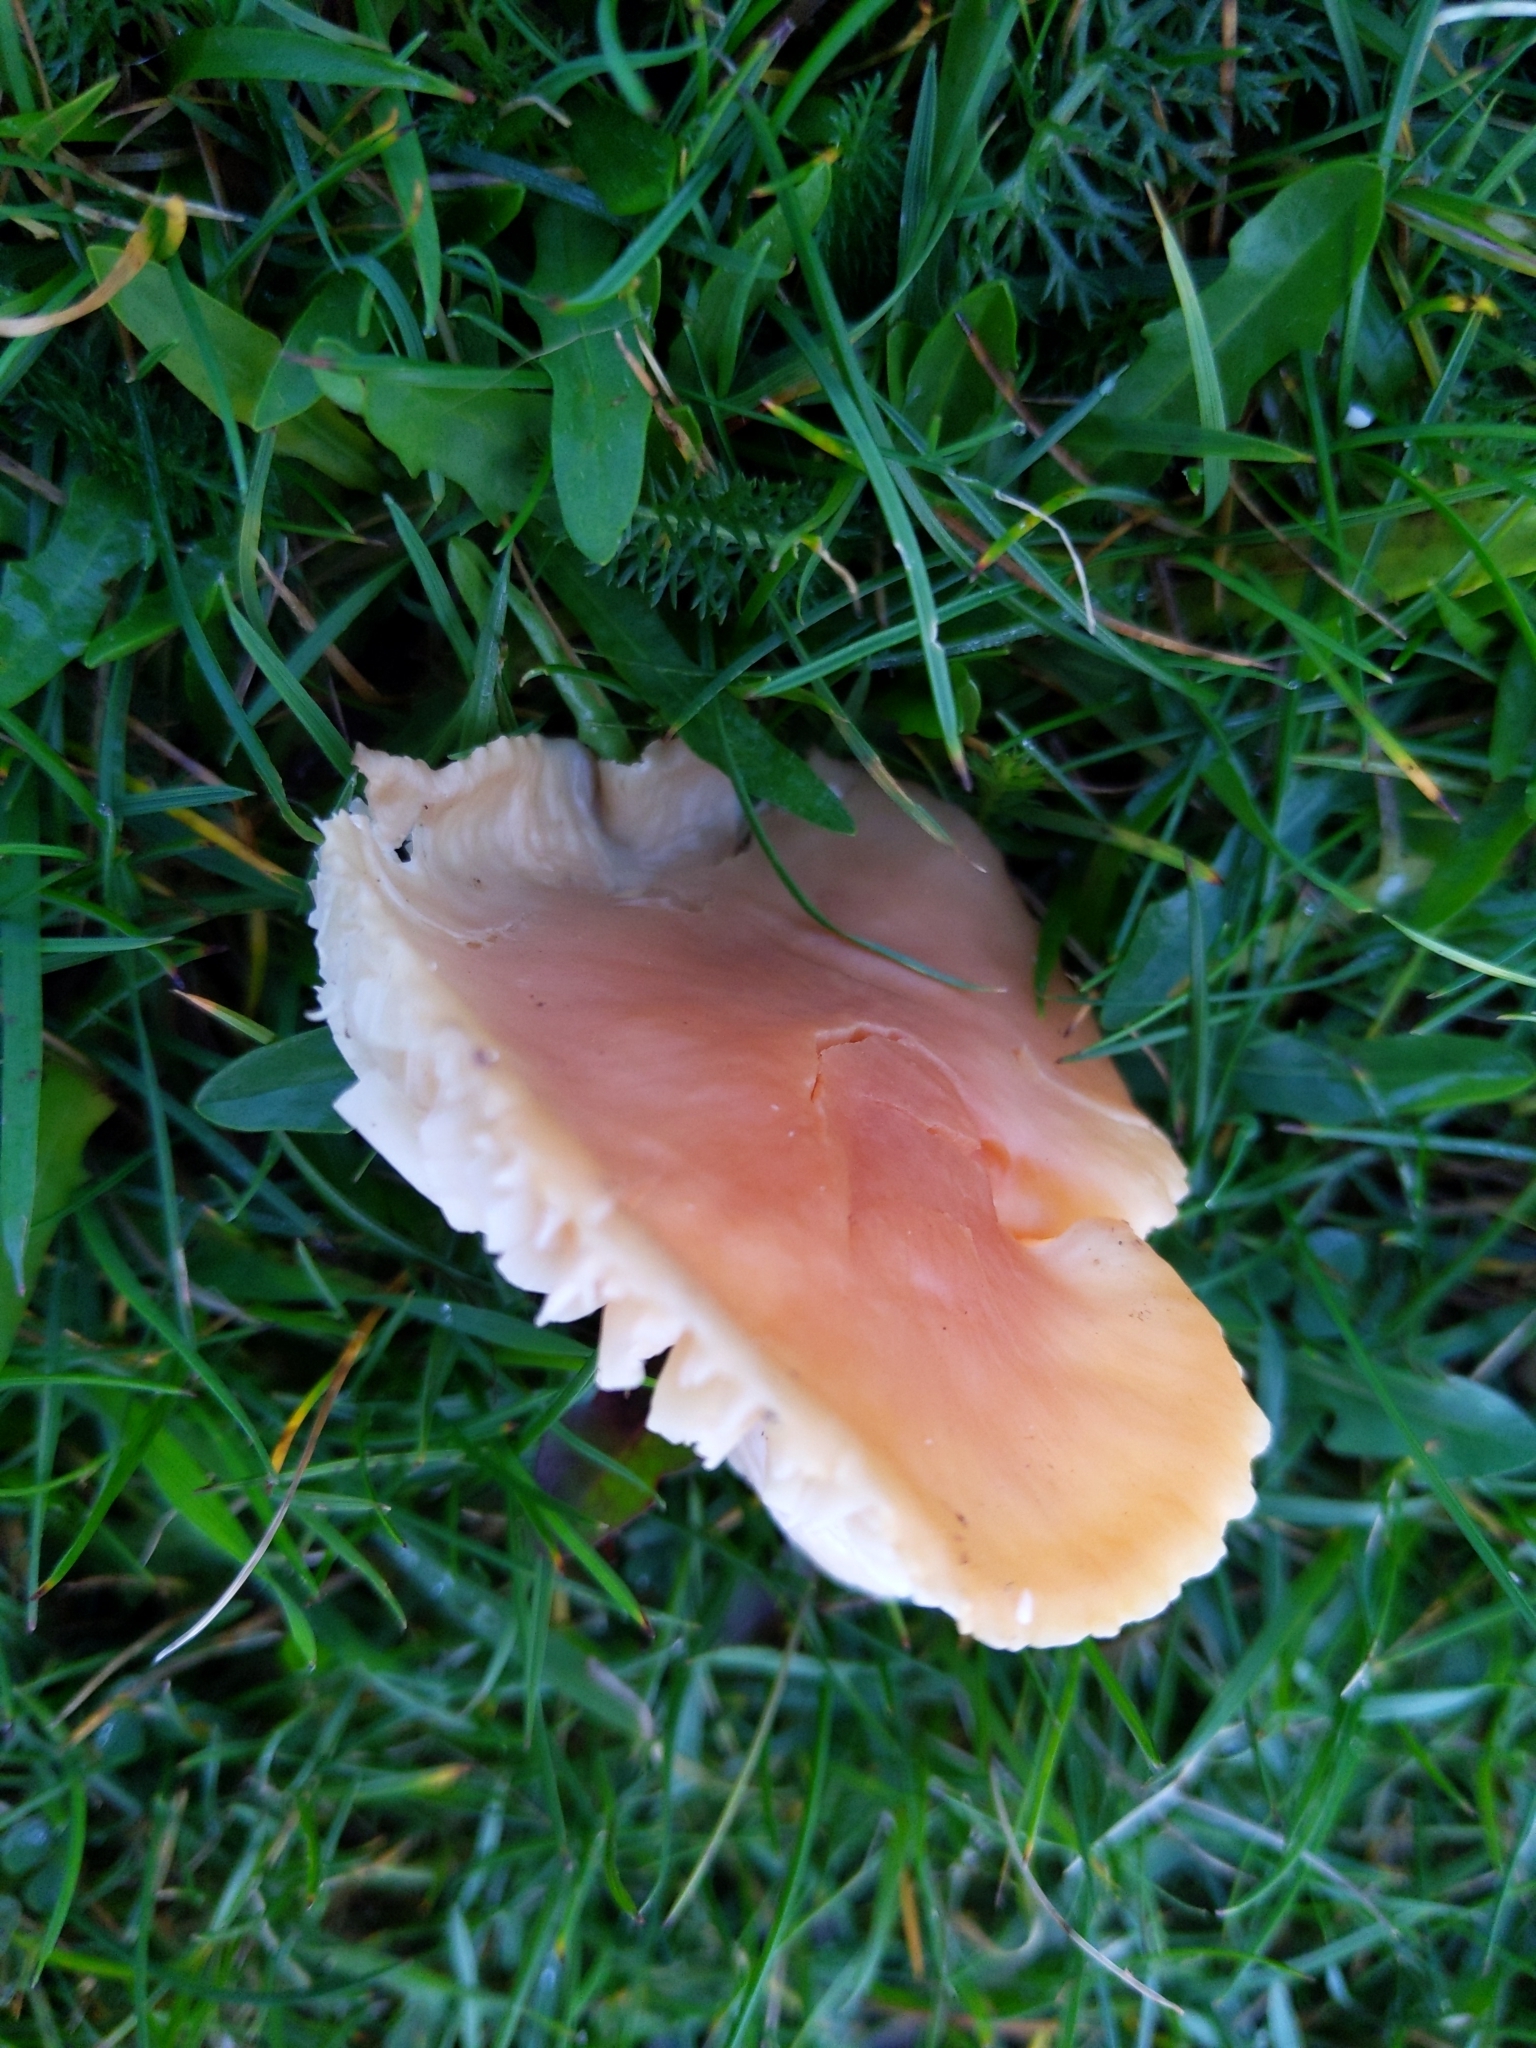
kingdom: Fungi
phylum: Basidiomycota
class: Agaricomycetes
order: Agaricales
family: Hygrophoraceae
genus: Cuphophyllus
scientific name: Cuphophyllus pratensis
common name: Meadow waxcap
